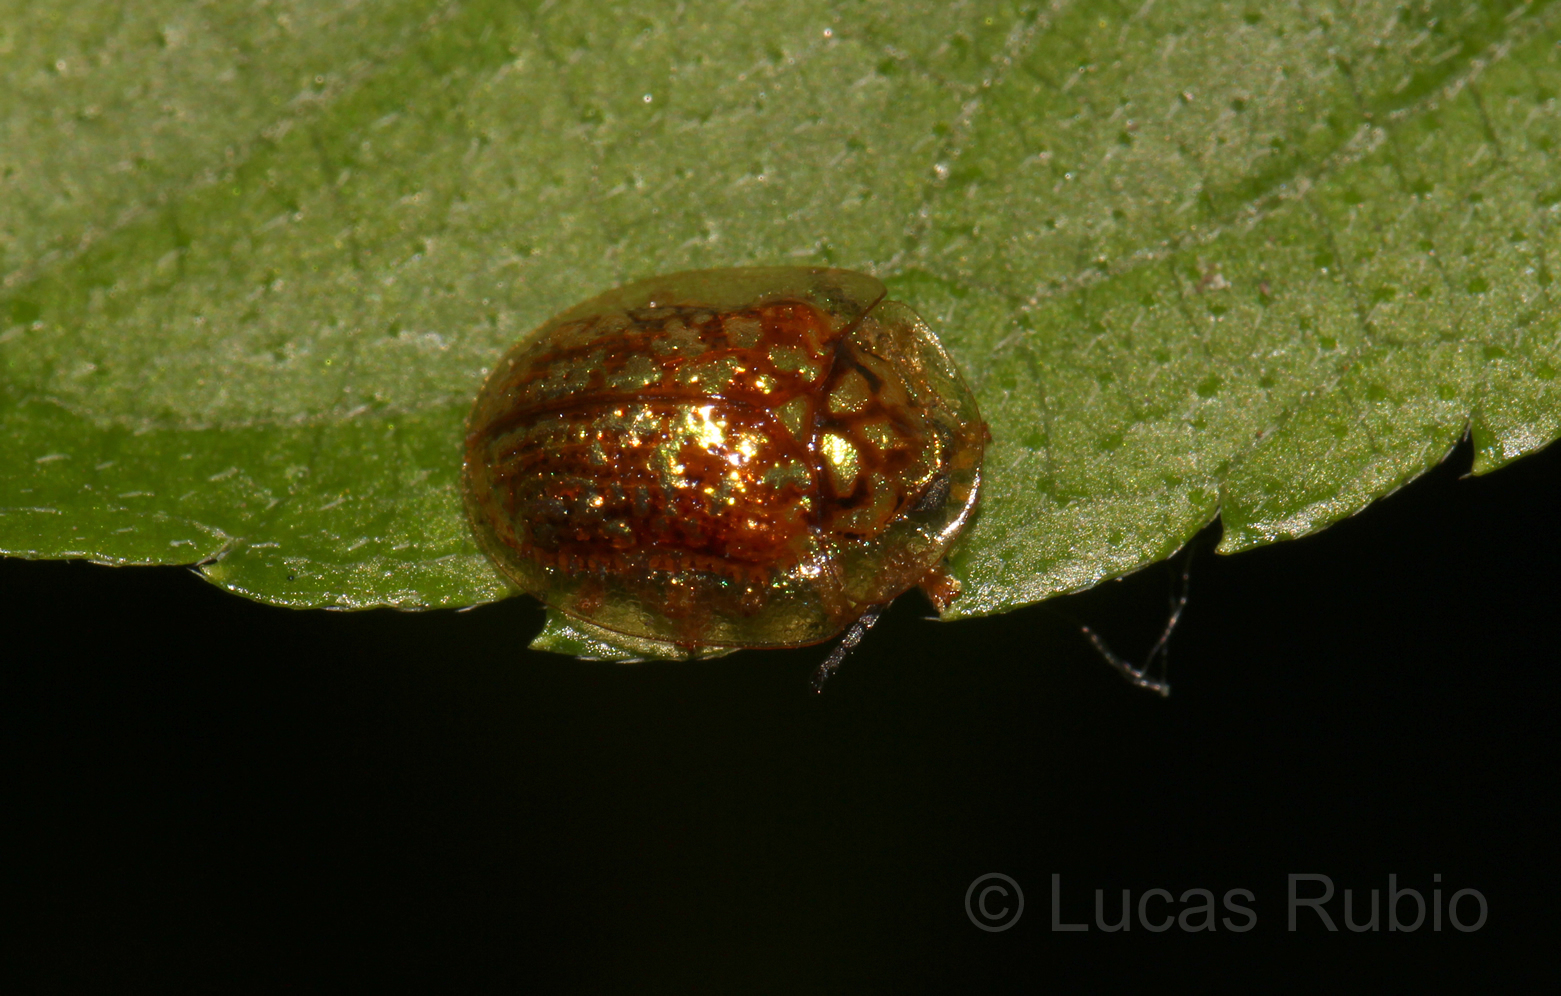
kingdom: Animalia
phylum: Arthropoda
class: Insecta
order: Coleoptera
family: Chrysomelidae
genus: Cteisella
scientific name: Cteisella confusa
